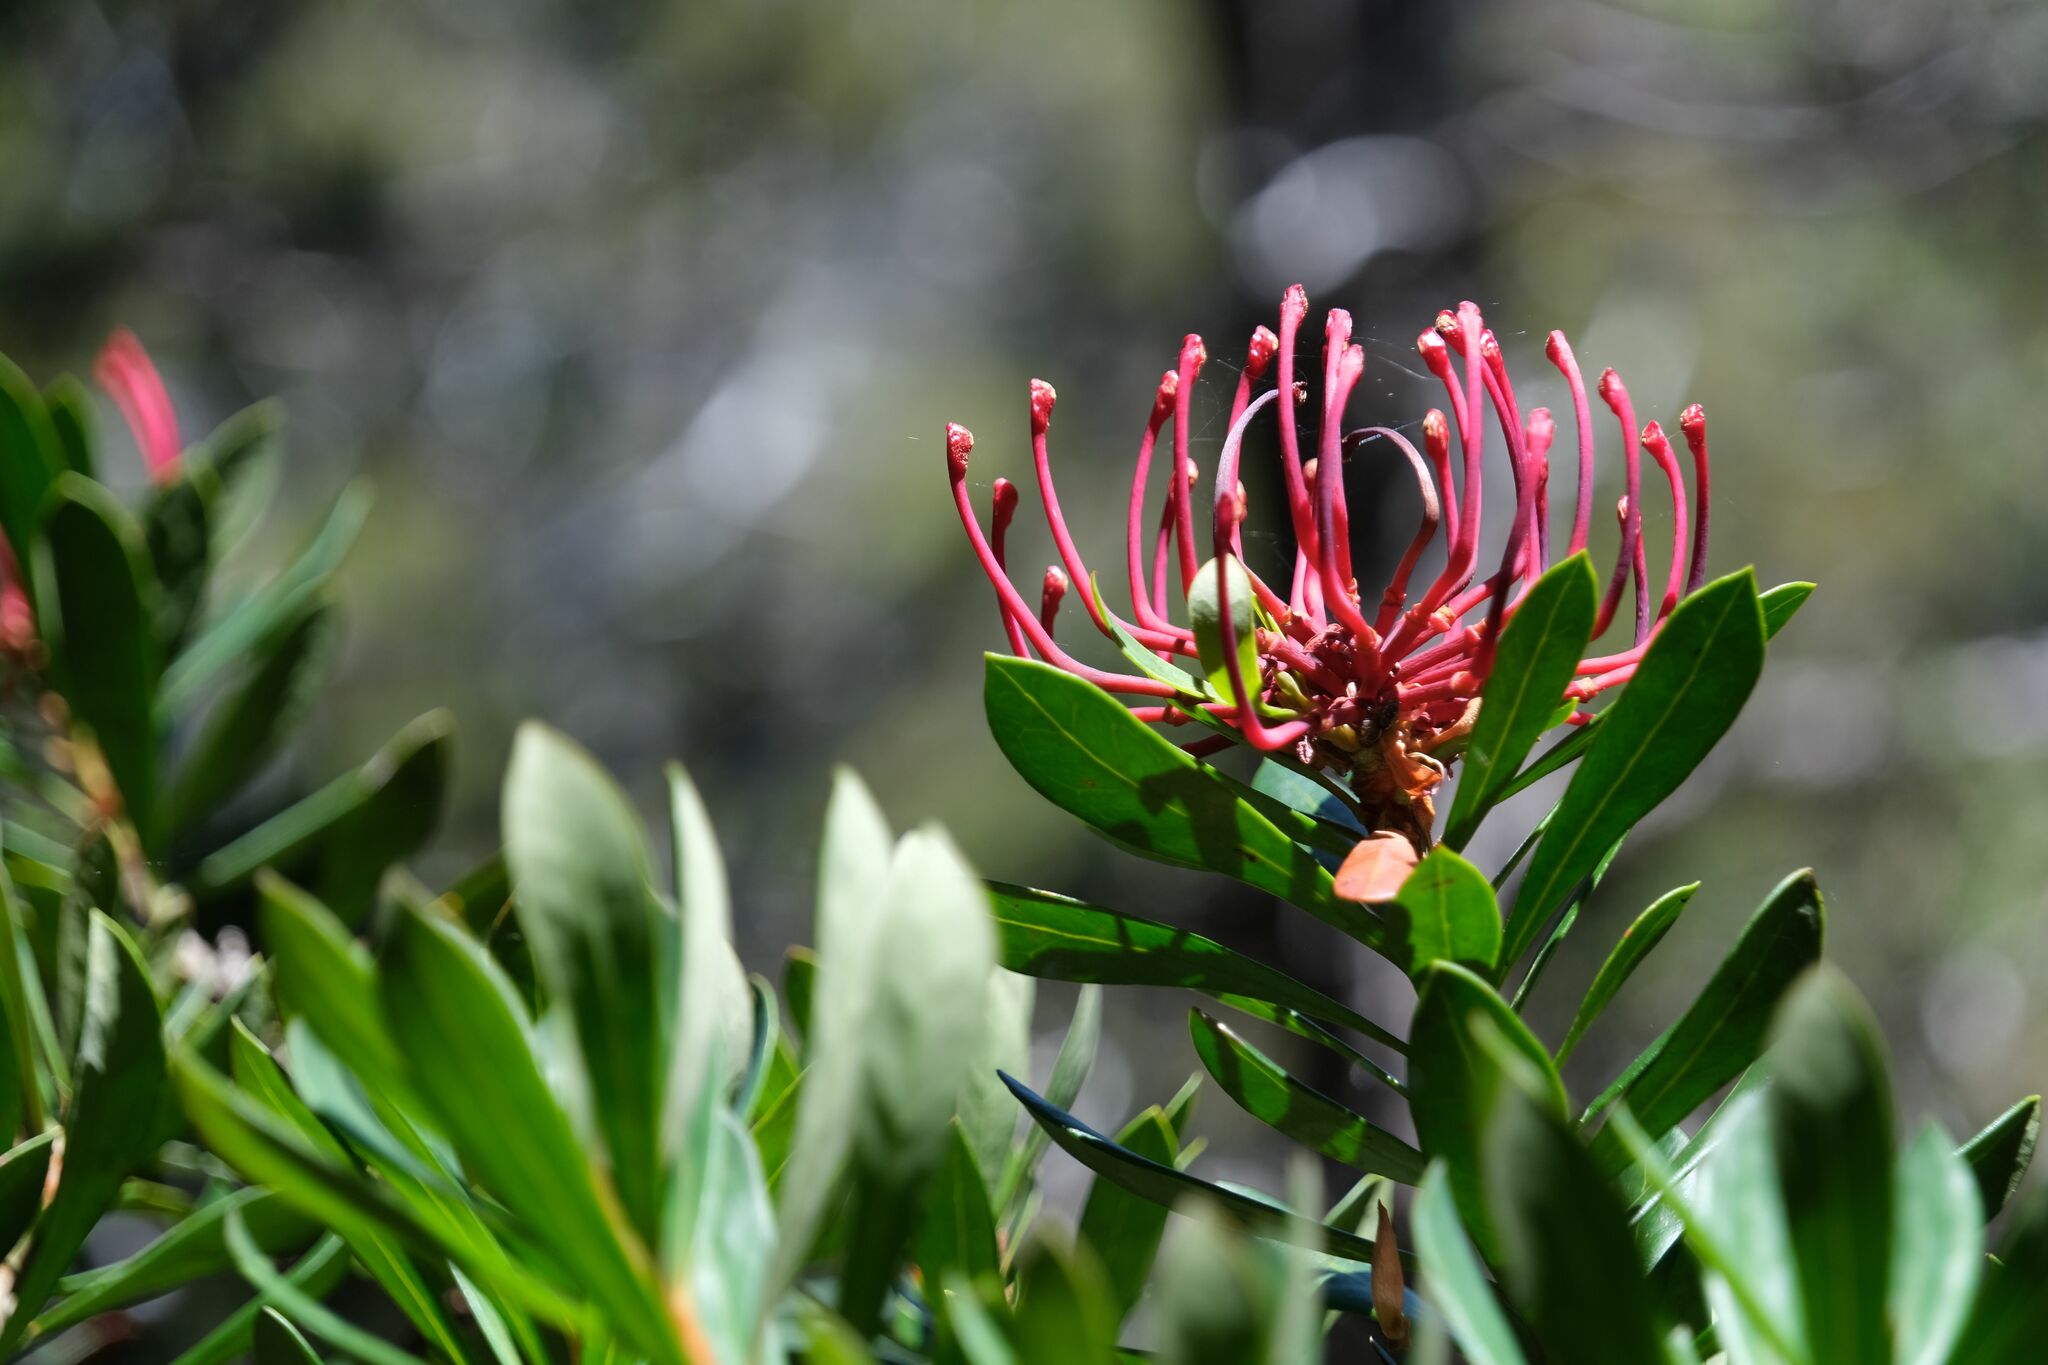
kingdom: Plantae
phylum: Tracheophyta
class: Magnoliopsida
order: Proteales
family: Proteaceae
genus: Telopea
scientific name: Telopea truncata
